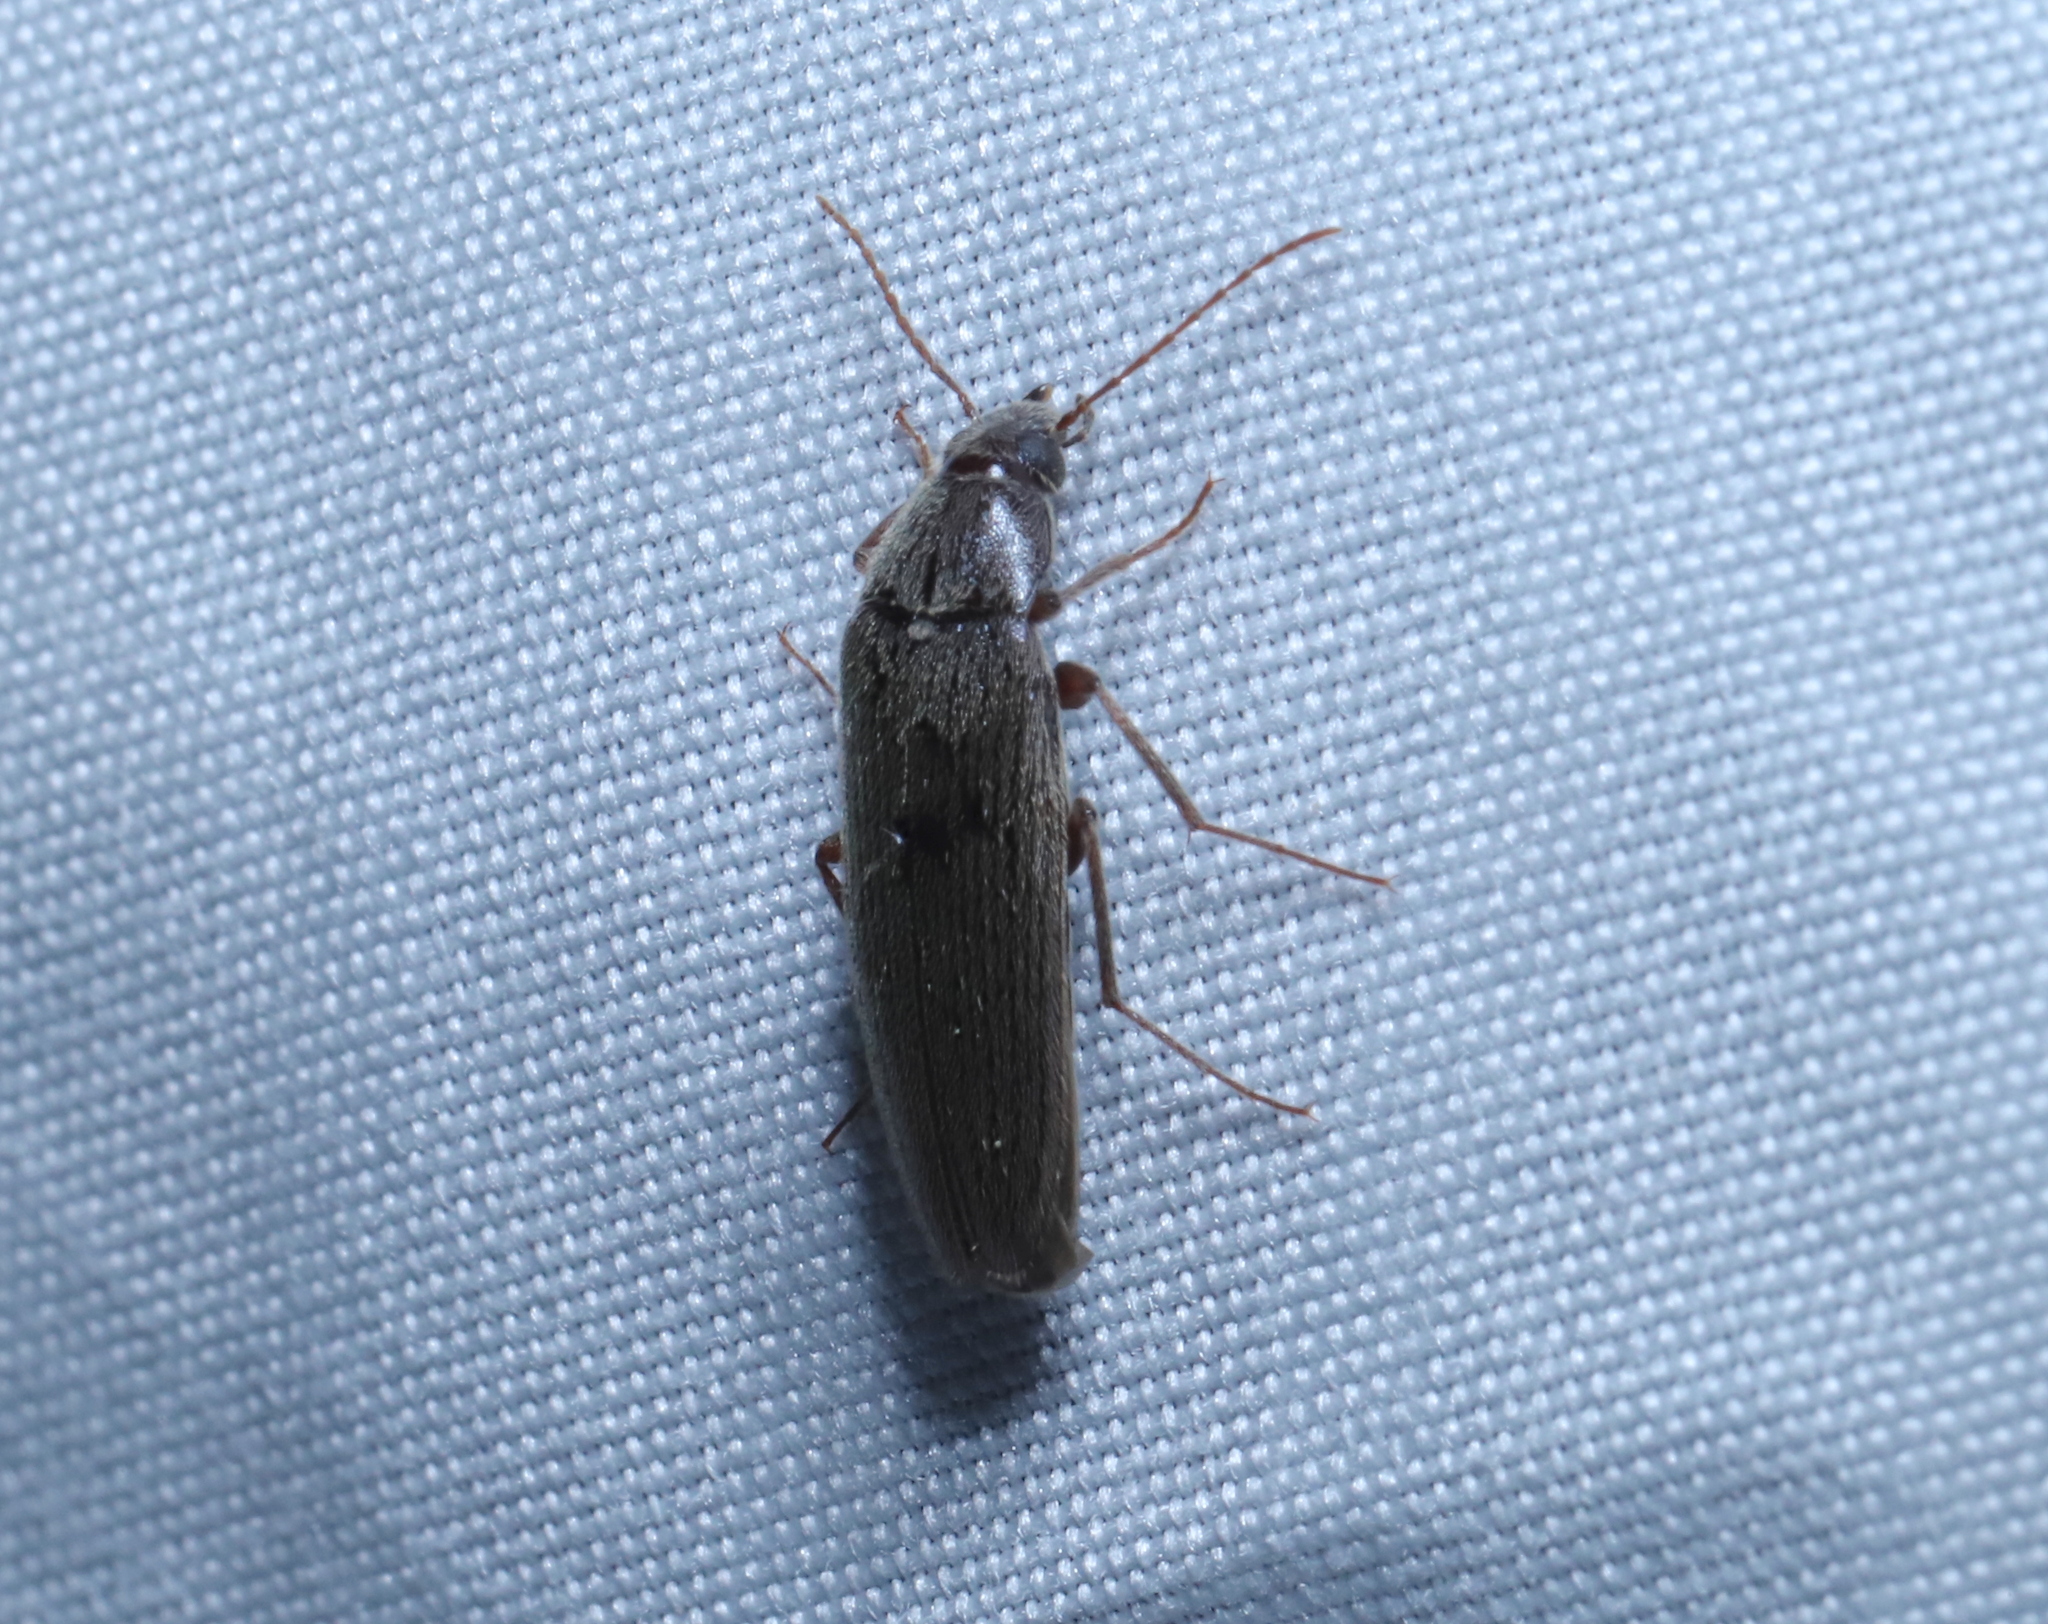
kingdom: Animalia
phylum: Arthropoda
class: Insecta
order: Coleoptera
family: Synchroidae
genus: Synchroa
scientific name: Synchroa punctata
